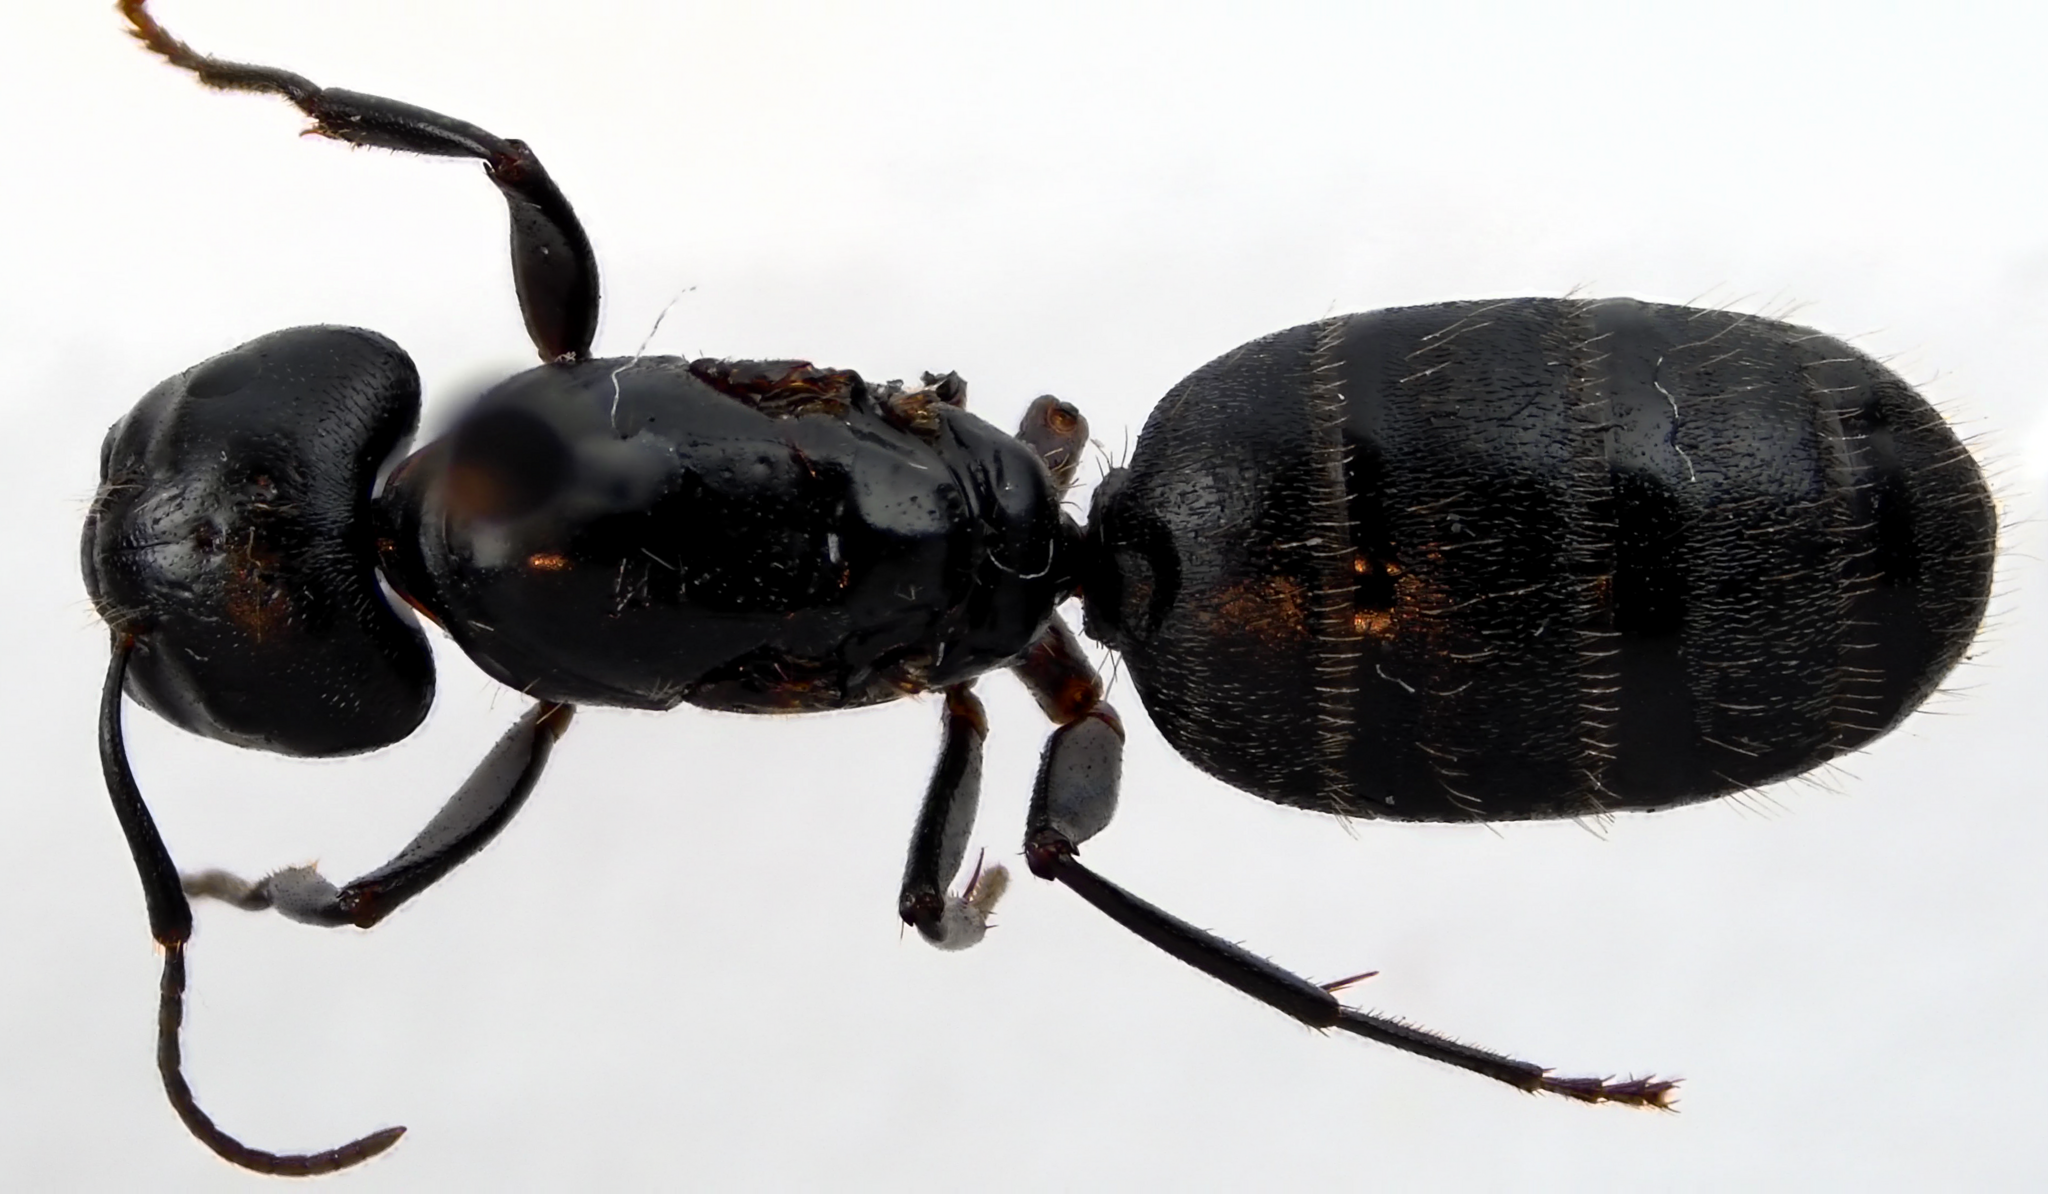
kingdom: Animalia
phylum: Arthropoda
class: Insecta
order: Hymenoptera
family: Formicidae
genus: Camponotus
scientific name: Camponotus pennsylvanicus
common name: Black carpenter ant
